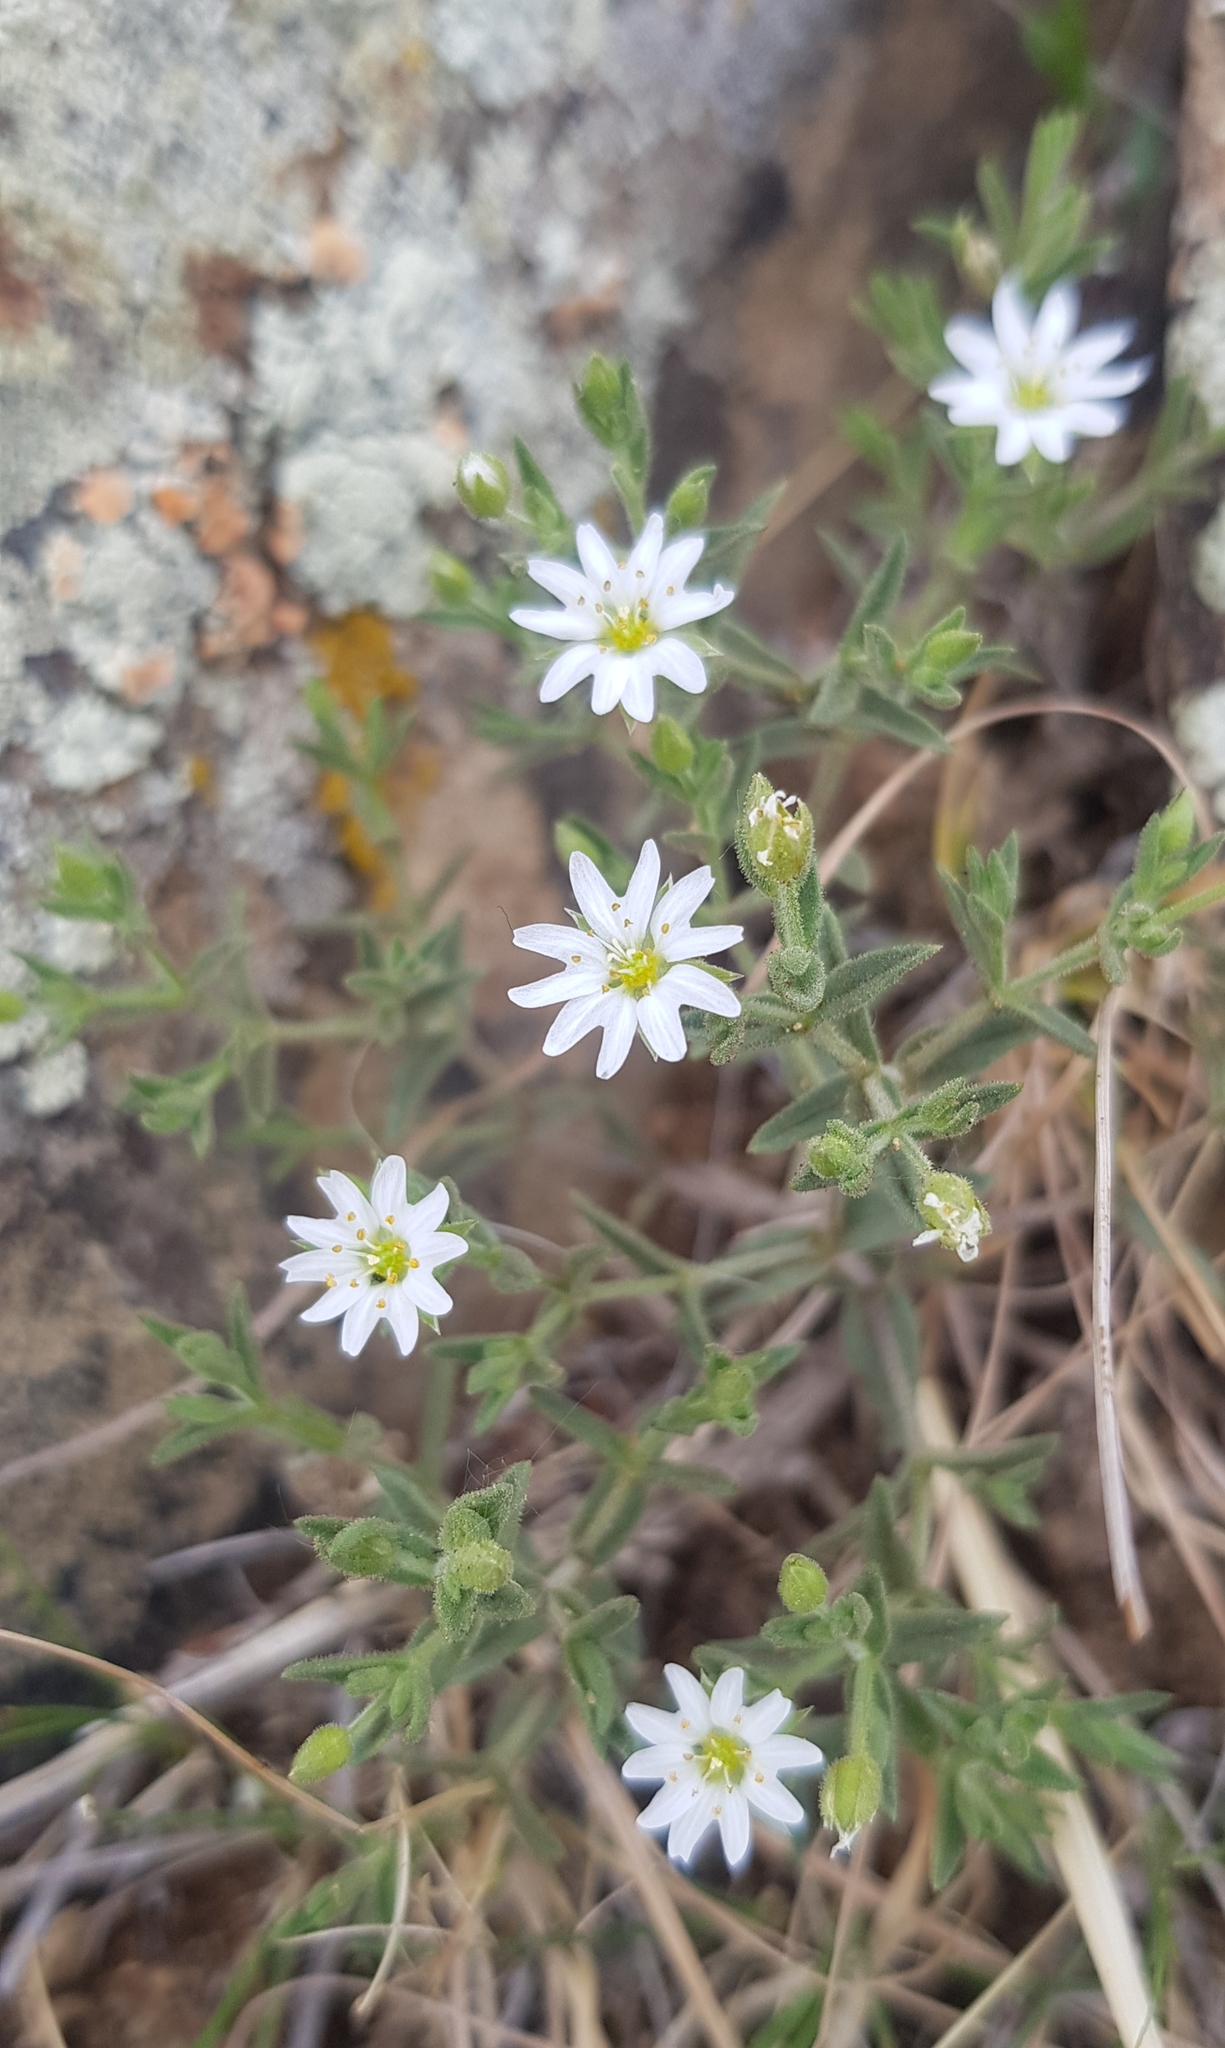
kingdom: Plantae
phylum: Tracheophyta
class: Magnoliopsida
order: Caryophyllales
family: Caryophyllaceae
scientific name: Caryophyllaceae
